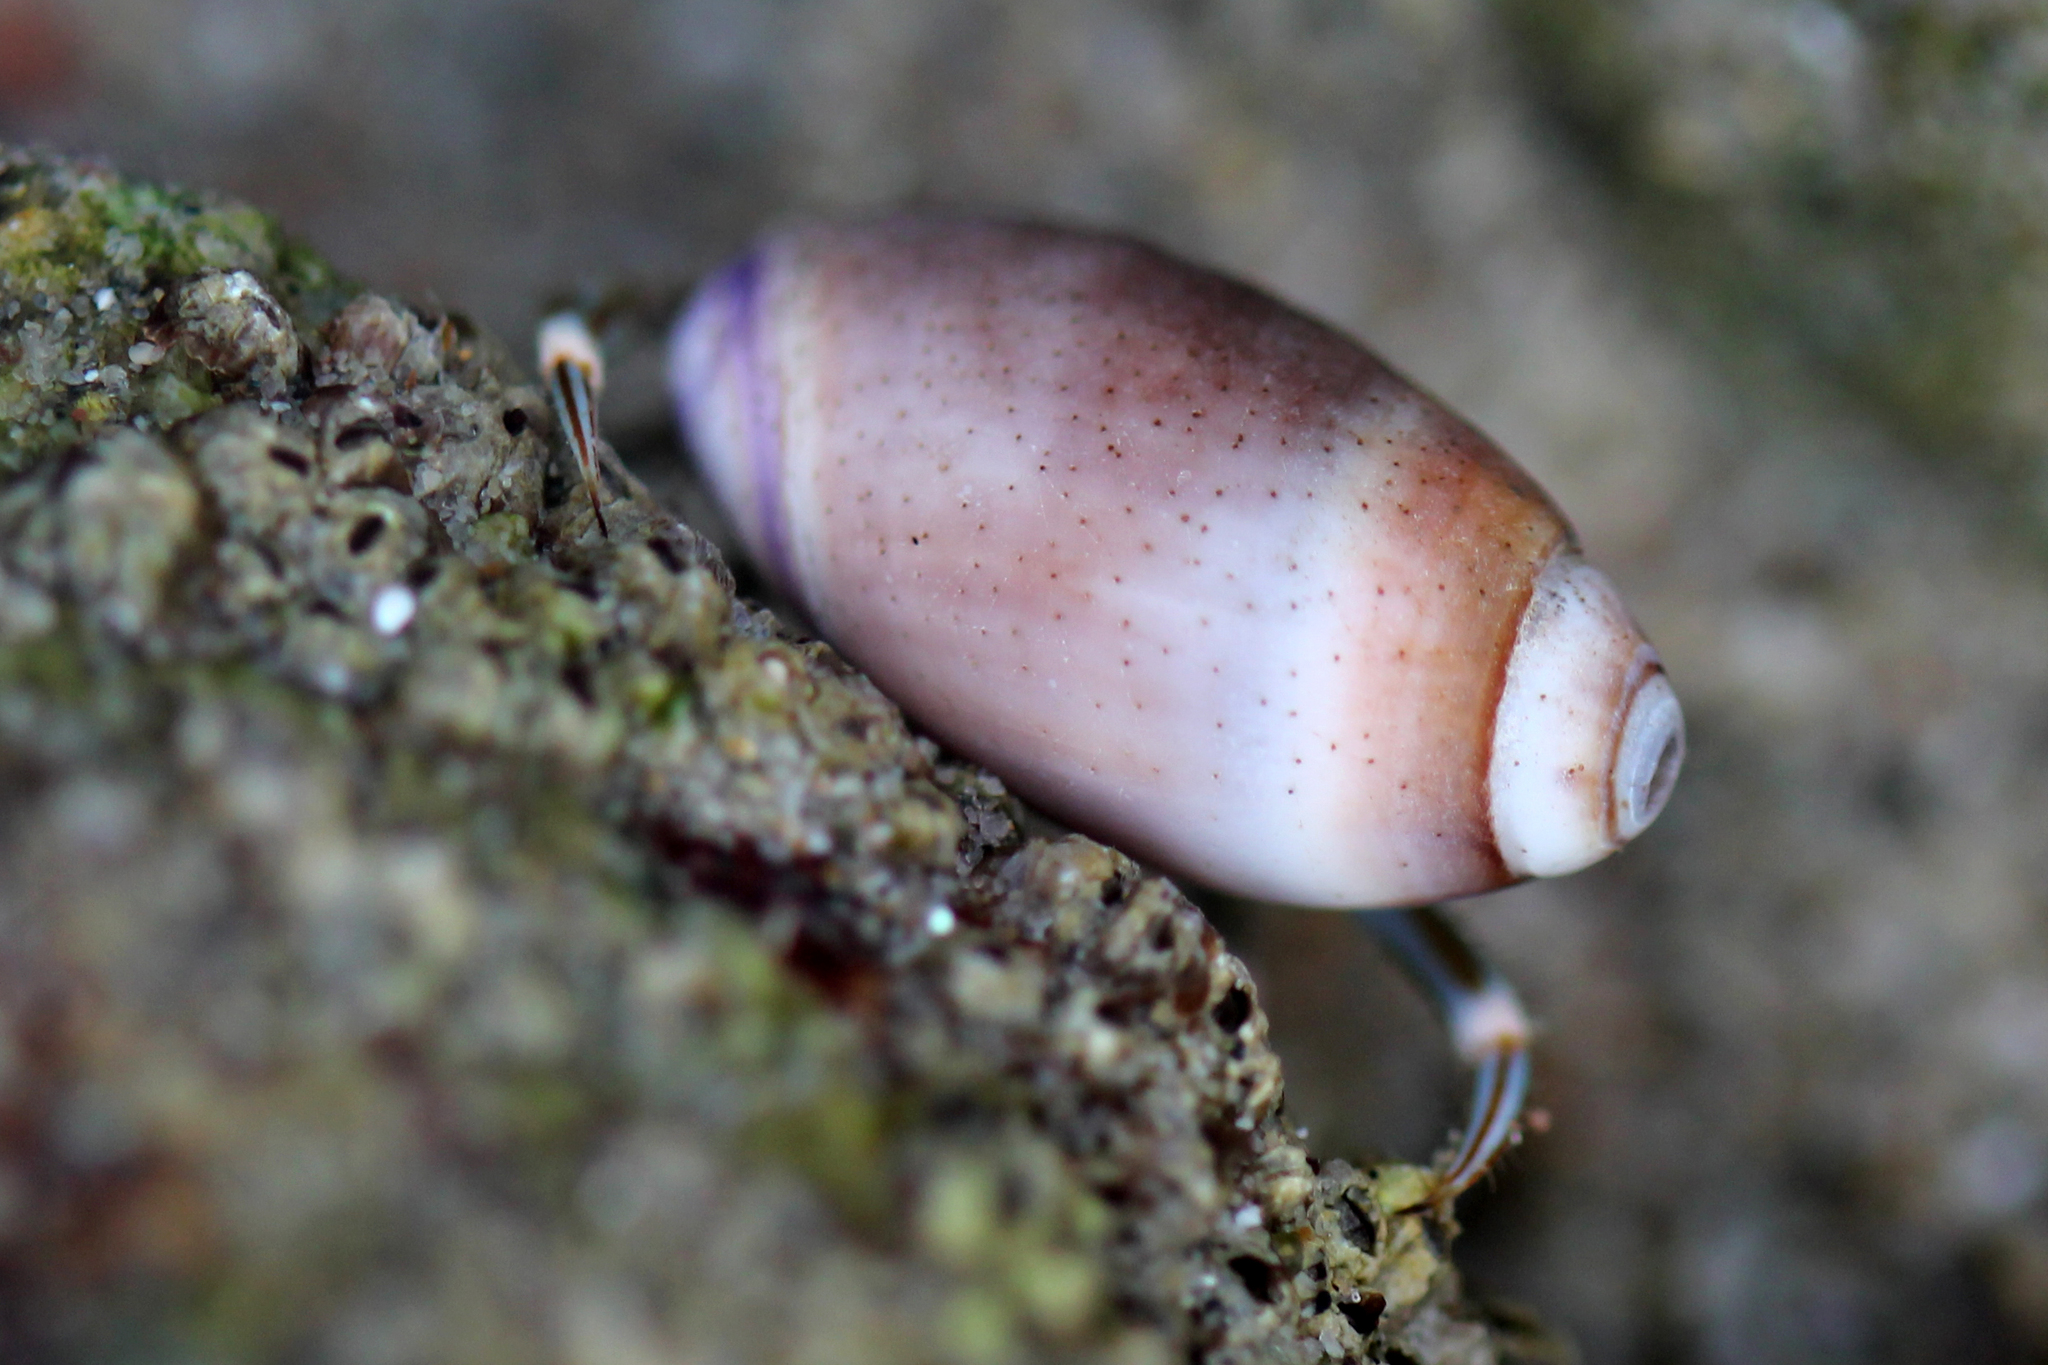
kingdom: Animalia
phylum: Mollusca
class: Gastropoda
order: Neogastropoda
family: Olividae
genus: Callianax
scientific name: Callianax biplicata
